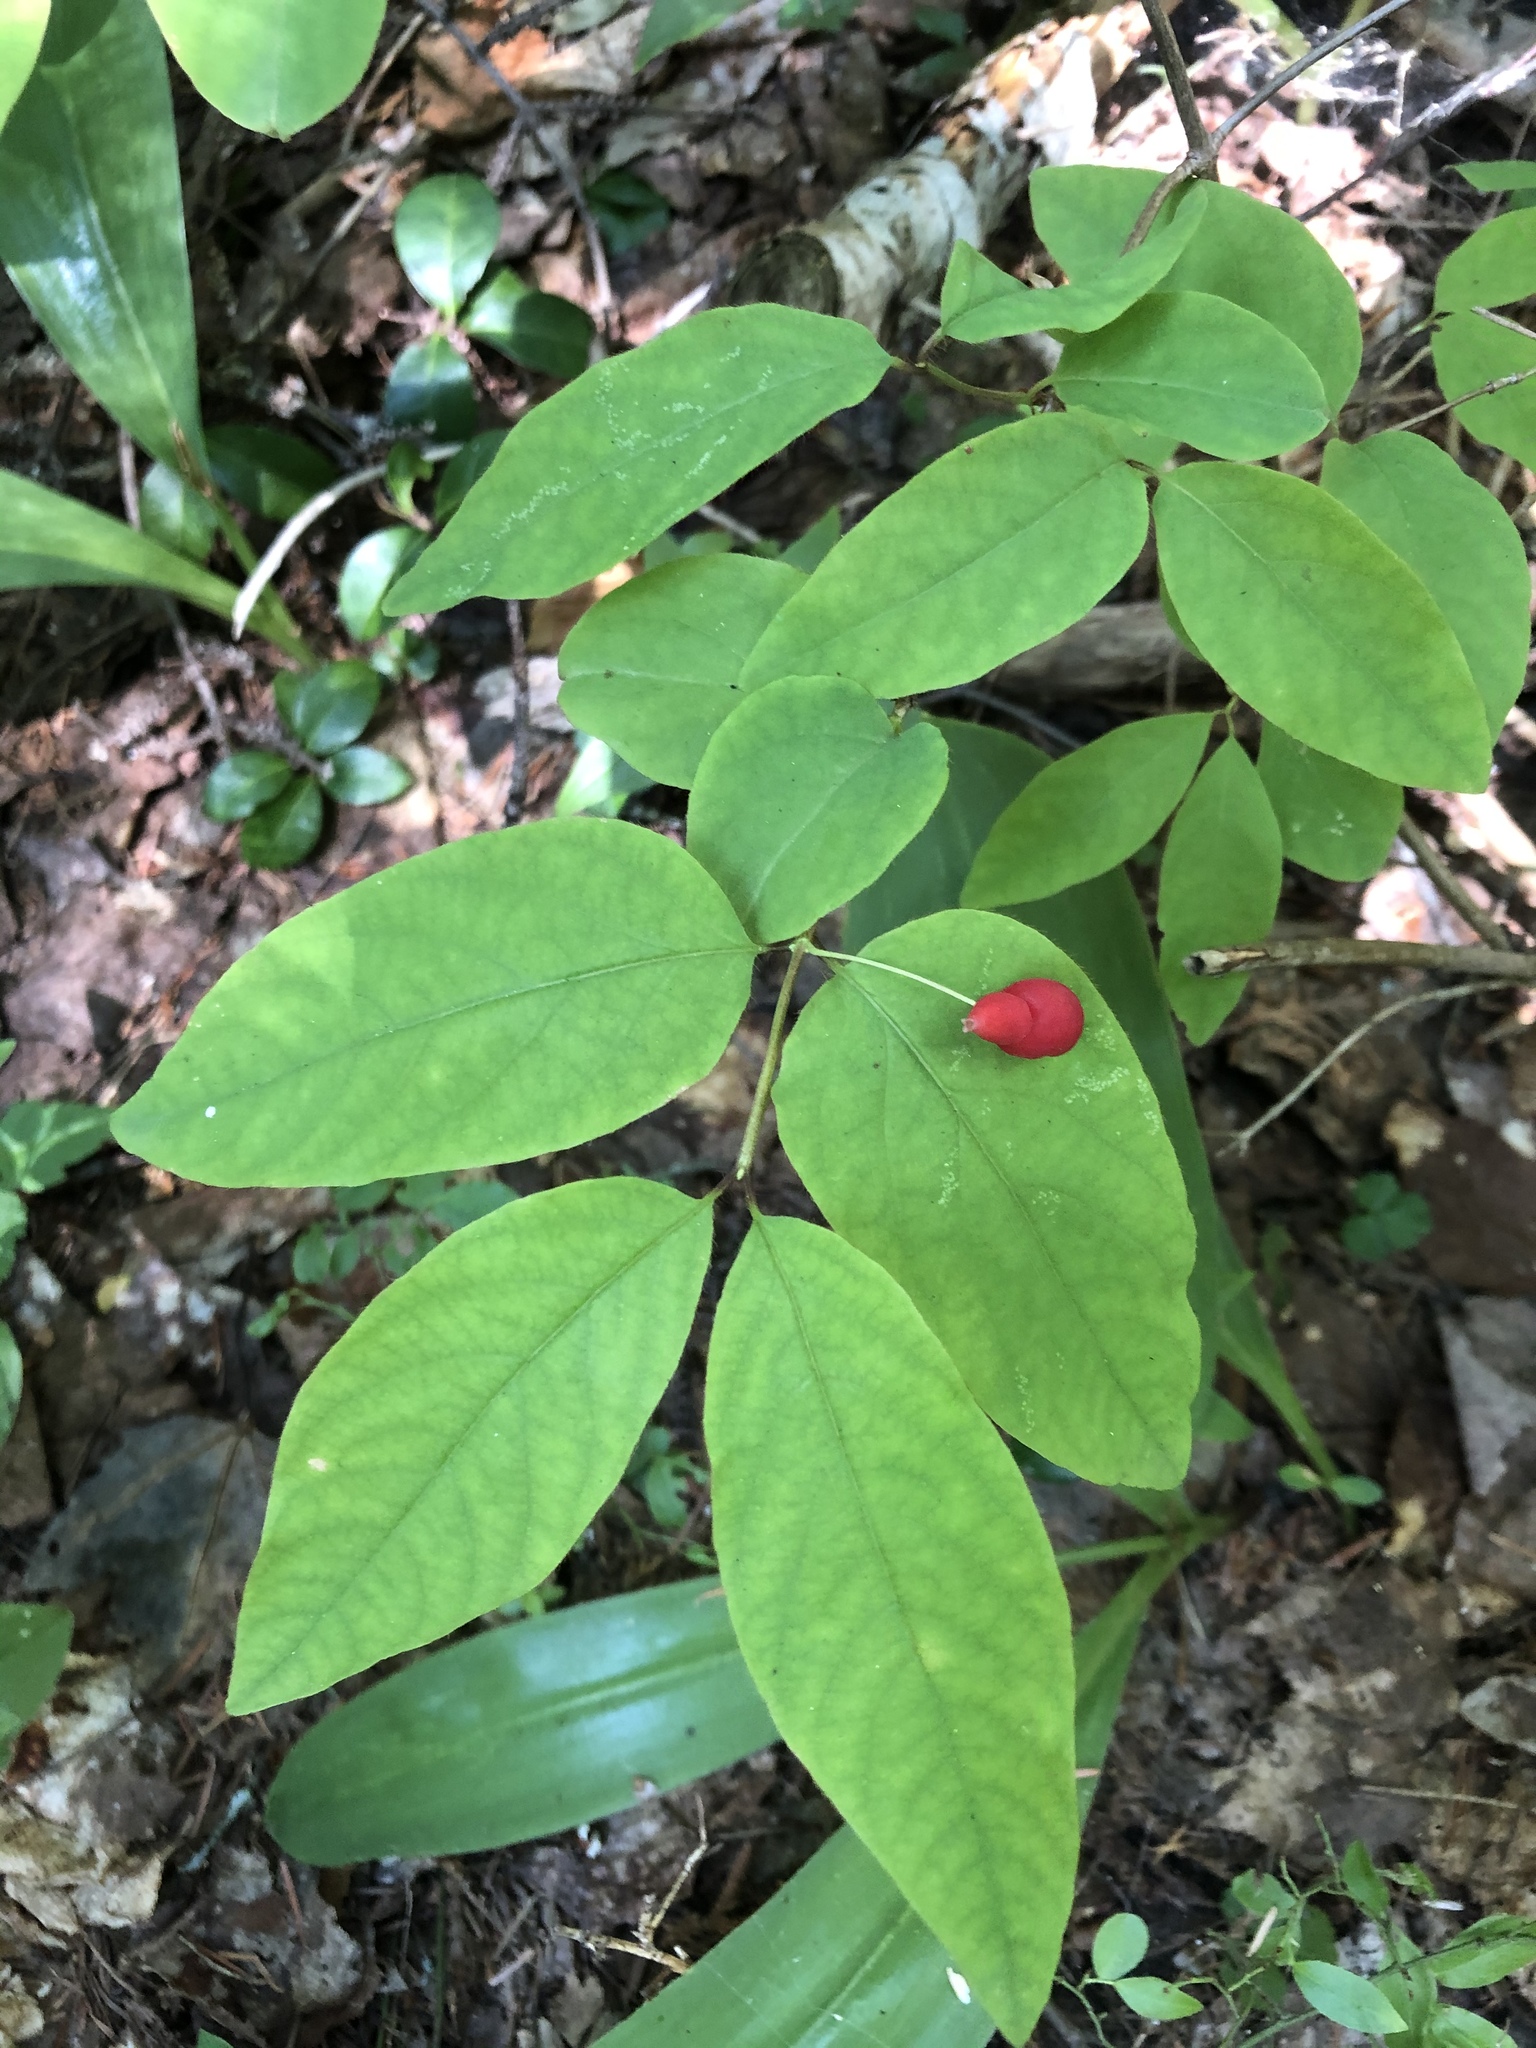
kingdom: Plantae
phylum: Tracheophyta
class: Magnoliopsida
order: Dipsacales
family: Caprifoliaceae
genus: Lonicera
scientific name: Lonicera canadensis
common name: American fly-honeysuckle
